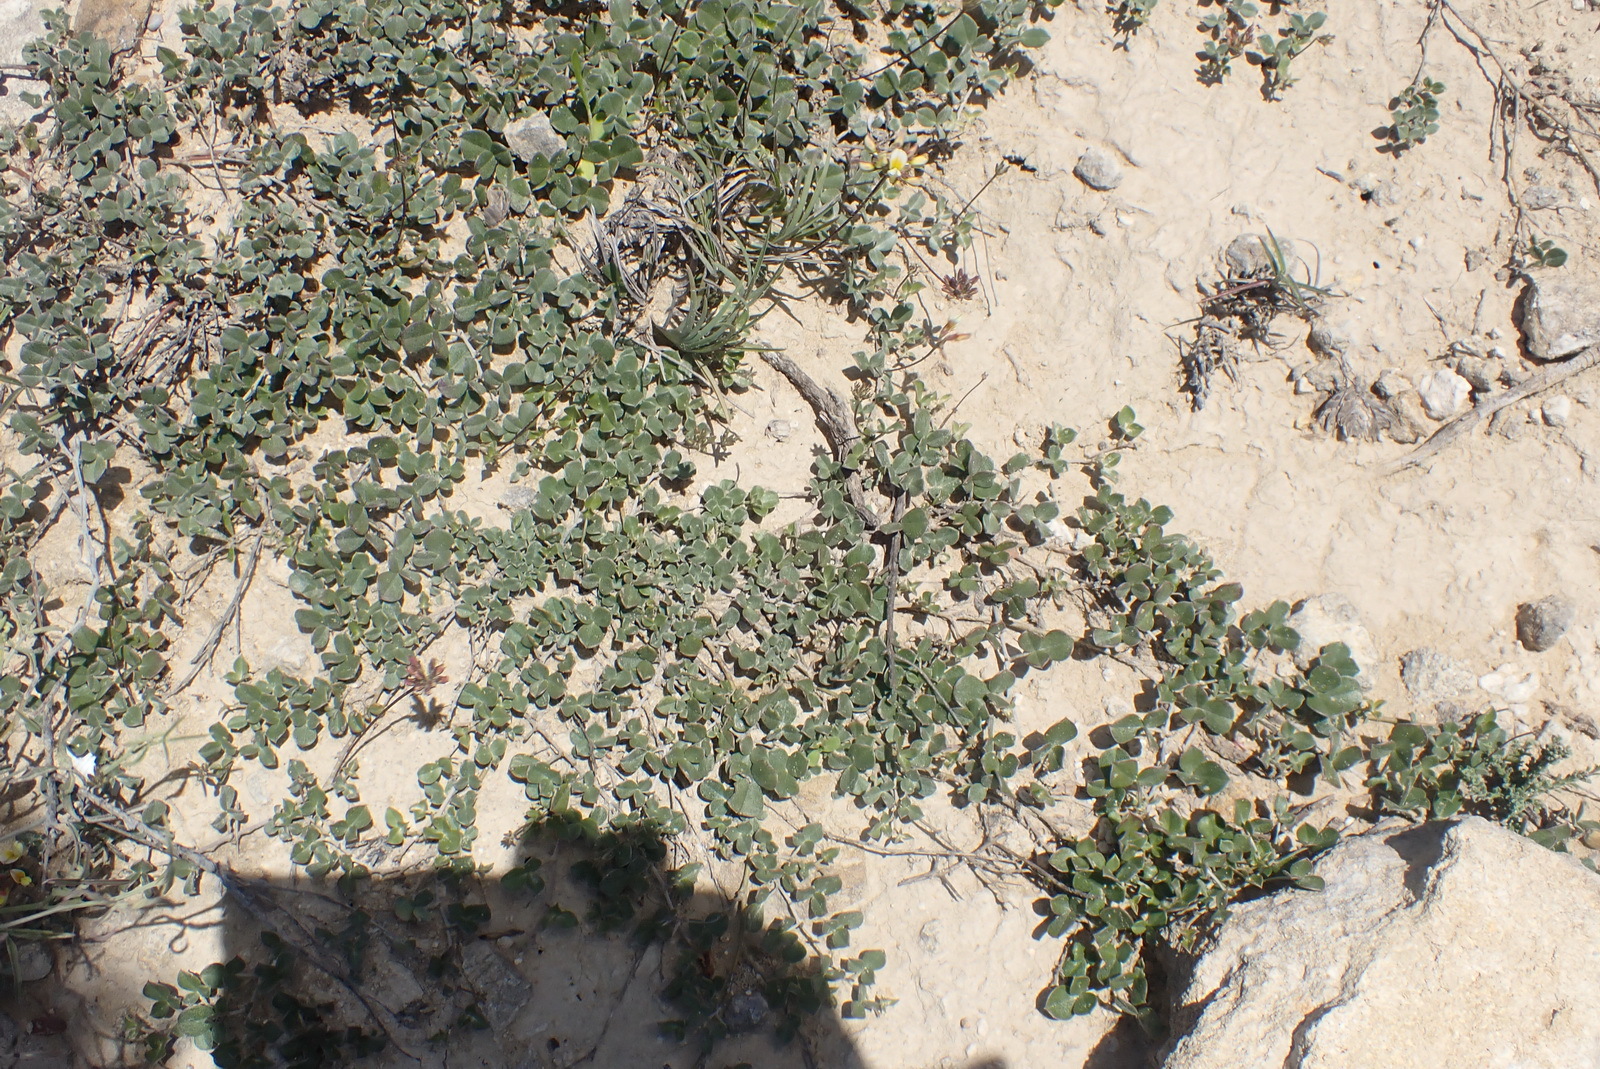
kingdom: Plantae
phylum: Tracheophyta
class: Magnoliopsida
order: Fabales
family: Fabaceae
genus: Lotononis
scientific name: Lotononis glabra
